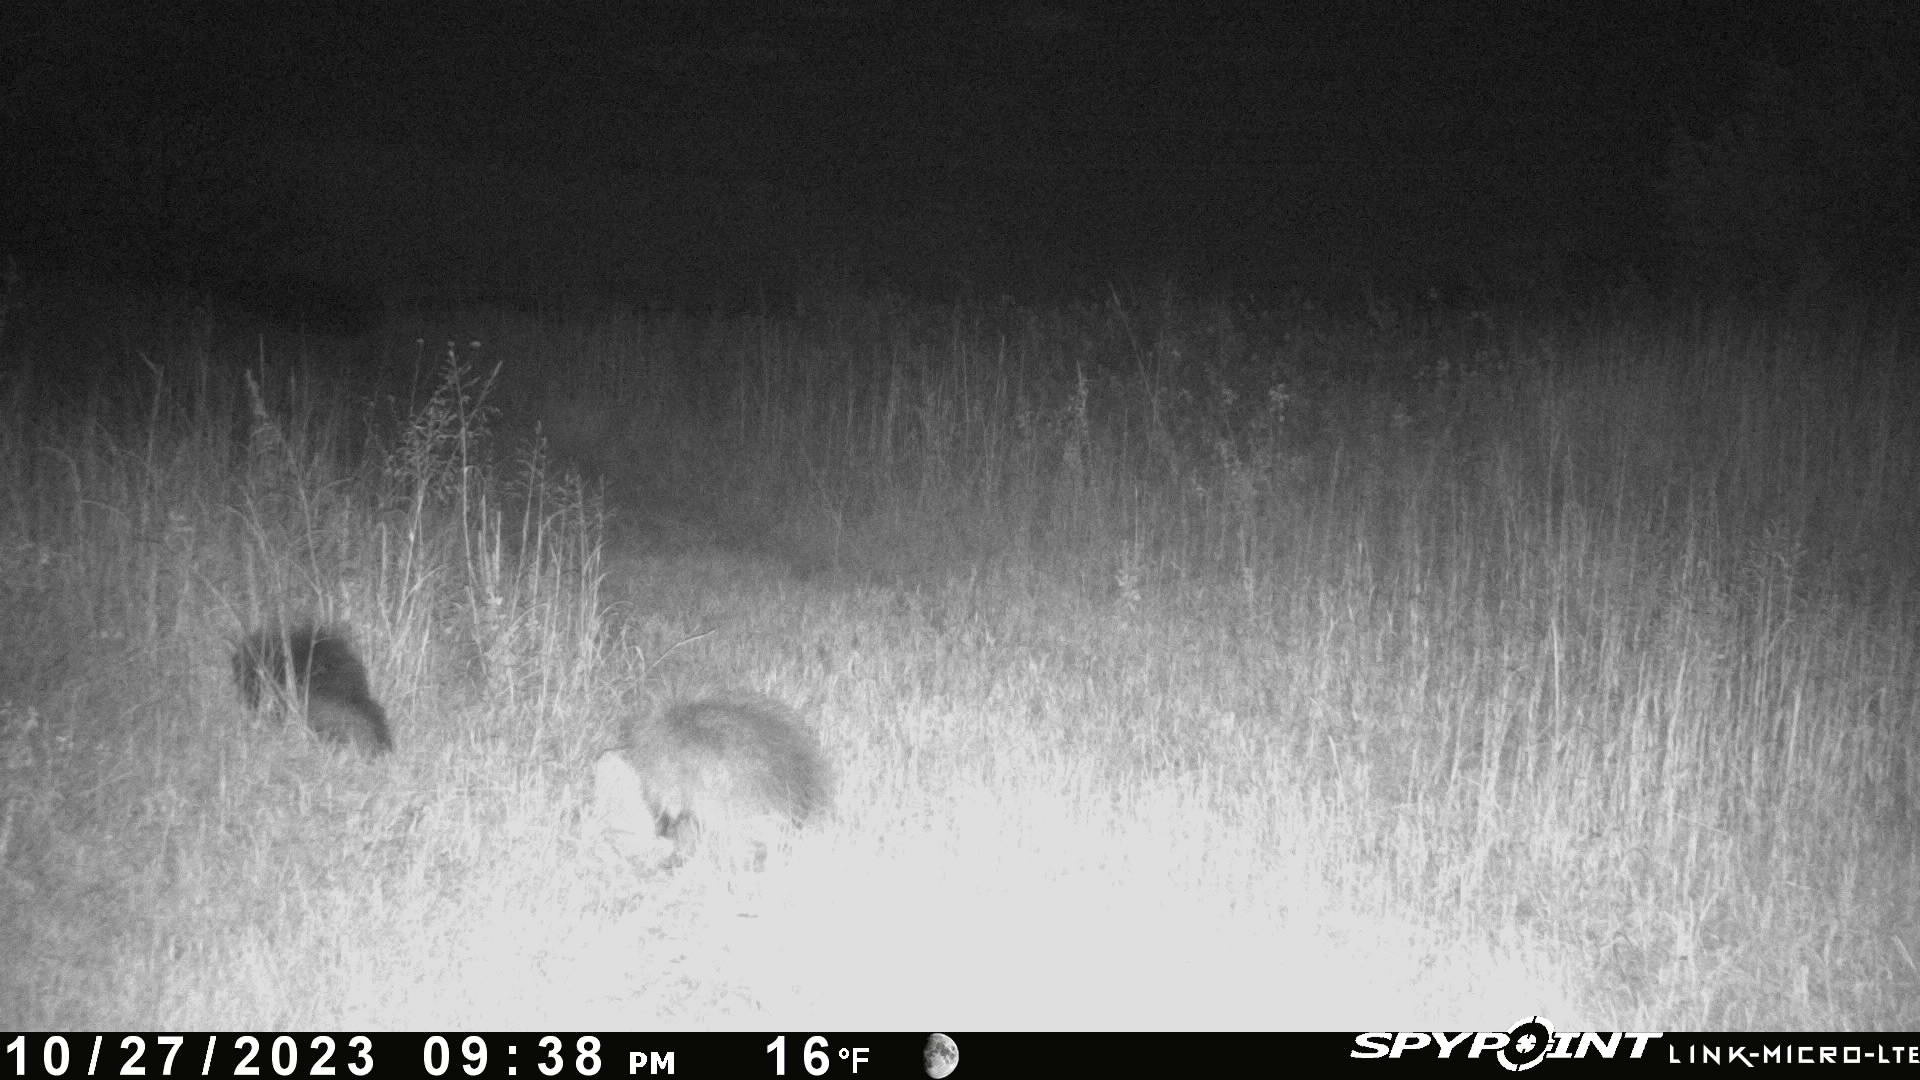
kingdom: Animalia
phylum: Chordata
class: Mammalia
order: Rodentia
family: Erethizontidae
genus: Erethizon
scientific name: Erethizon dorsatus
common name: North american porcupine
